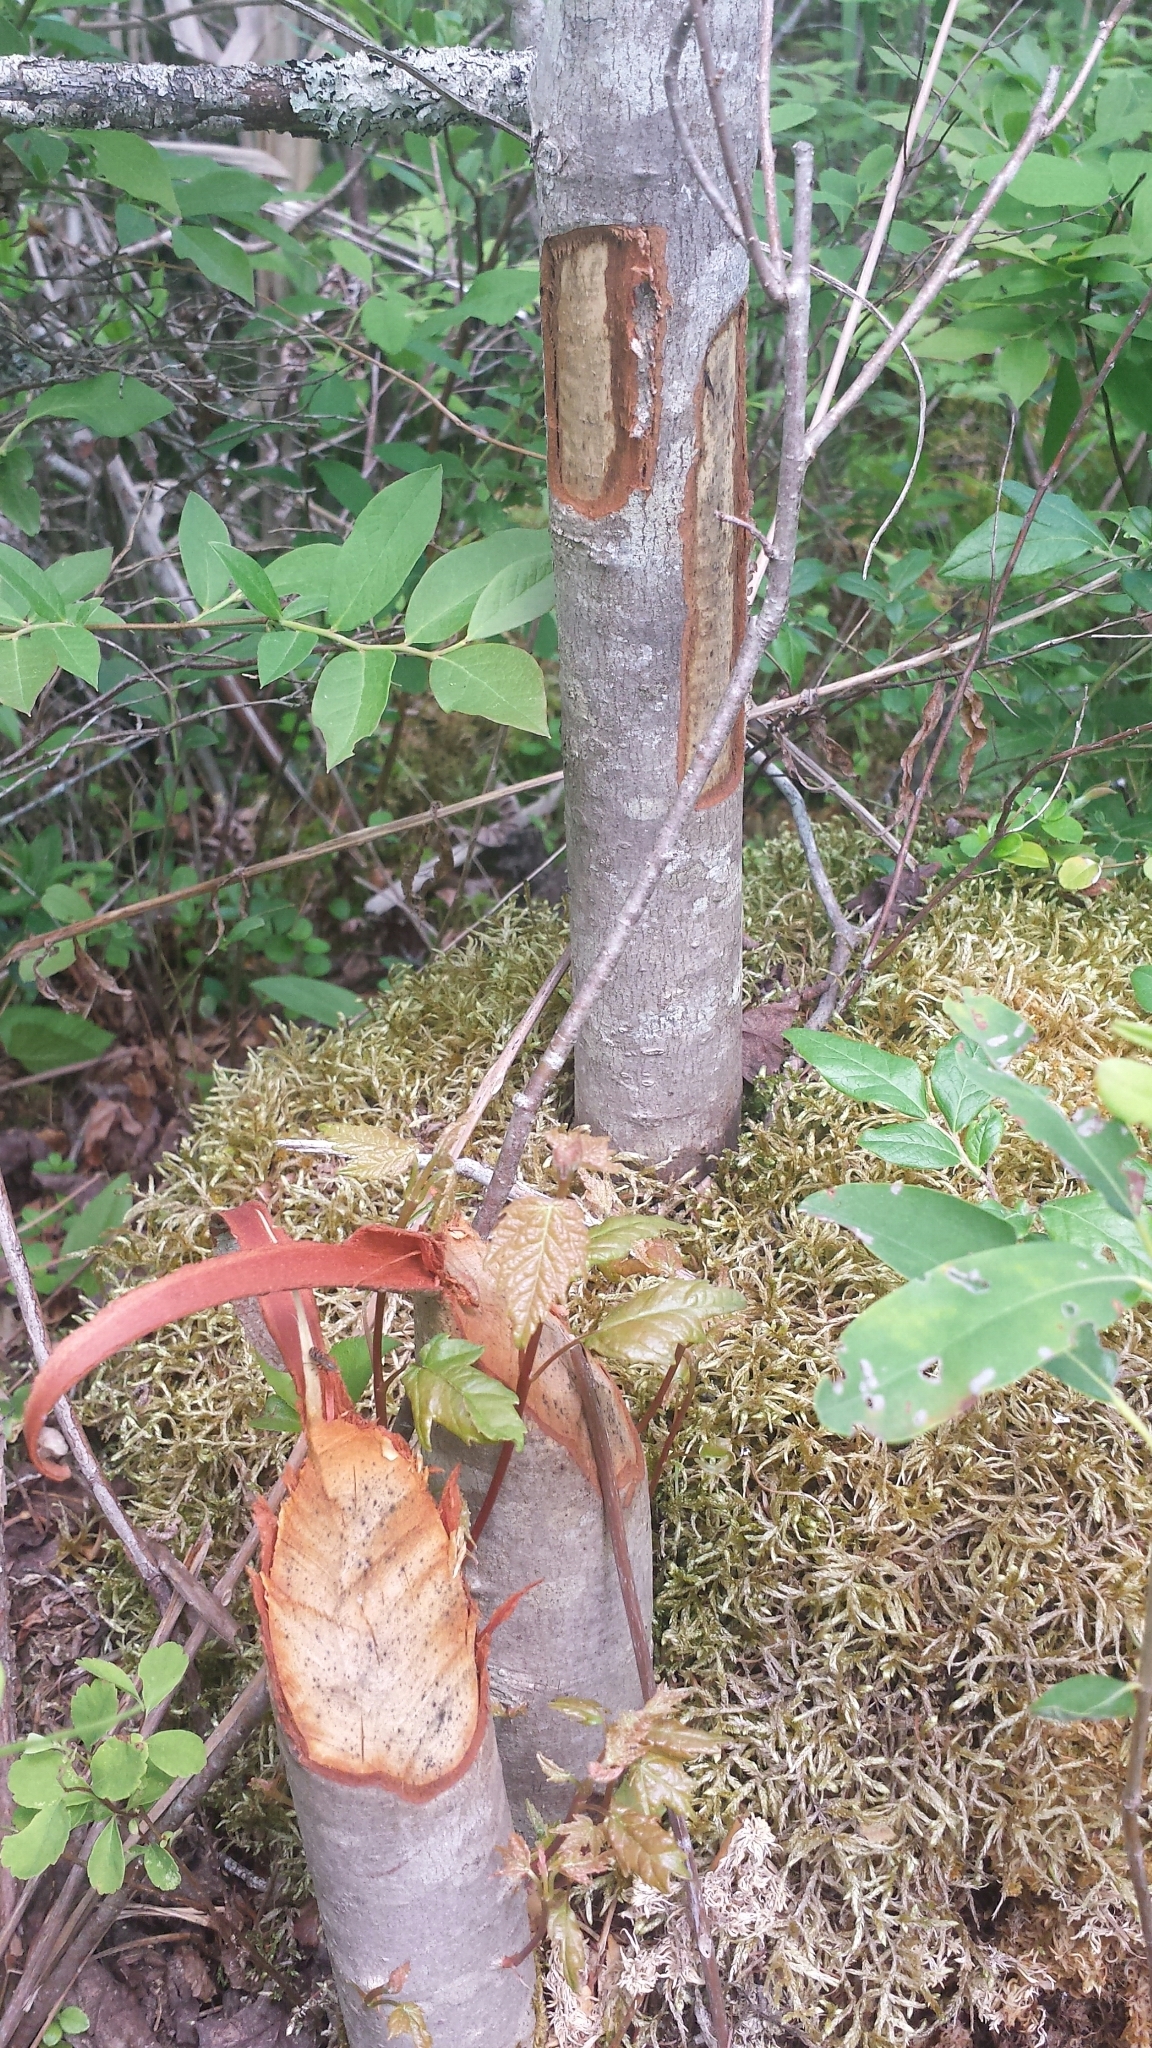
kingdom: Animalia
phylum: Chordata
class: Mammalia
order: Rodentia
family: Castoridae
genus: Castor
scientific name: Castor canadensis
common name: American beaver
